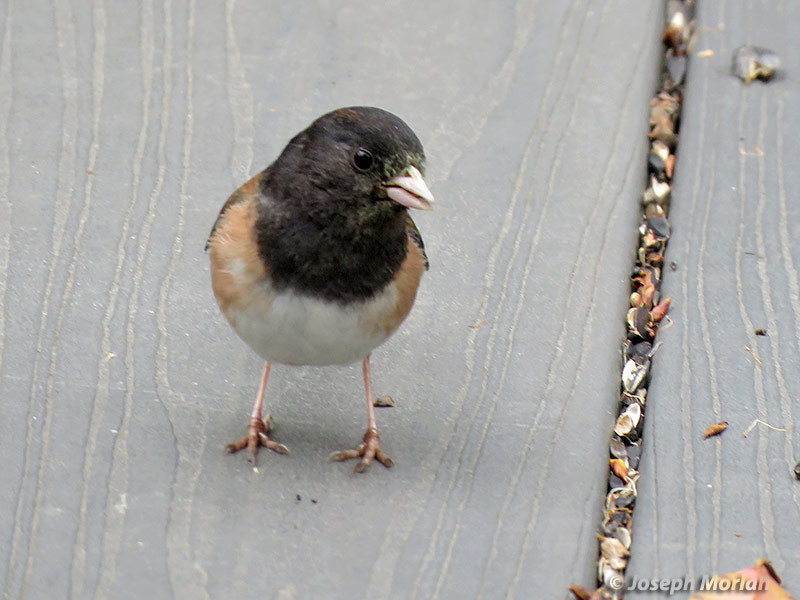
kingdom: Animalia
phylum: Chordata
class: Aves
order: Passeriformes
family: Passerellidae
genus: Junco
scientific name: Junco hyemalis
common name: Dark-eyed junco
